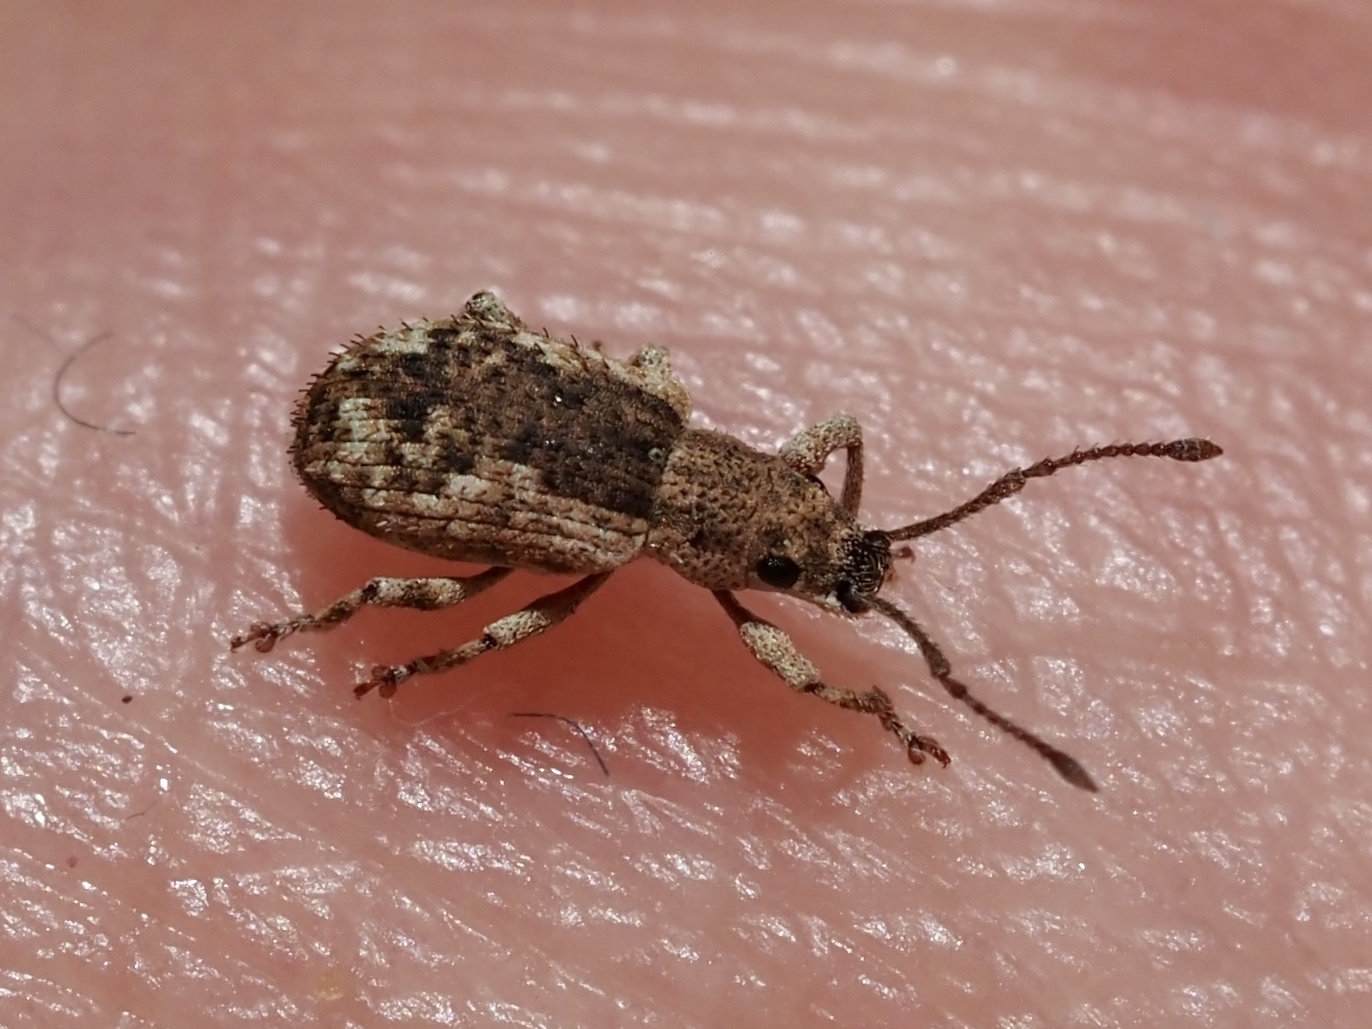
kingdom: Animalia
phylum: Arthropoda
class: Insecta
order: Coleoptera
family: Curculionidae
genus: Pseudoedophrys
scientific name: Pseudoedophrys hilleri
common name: Weevil
